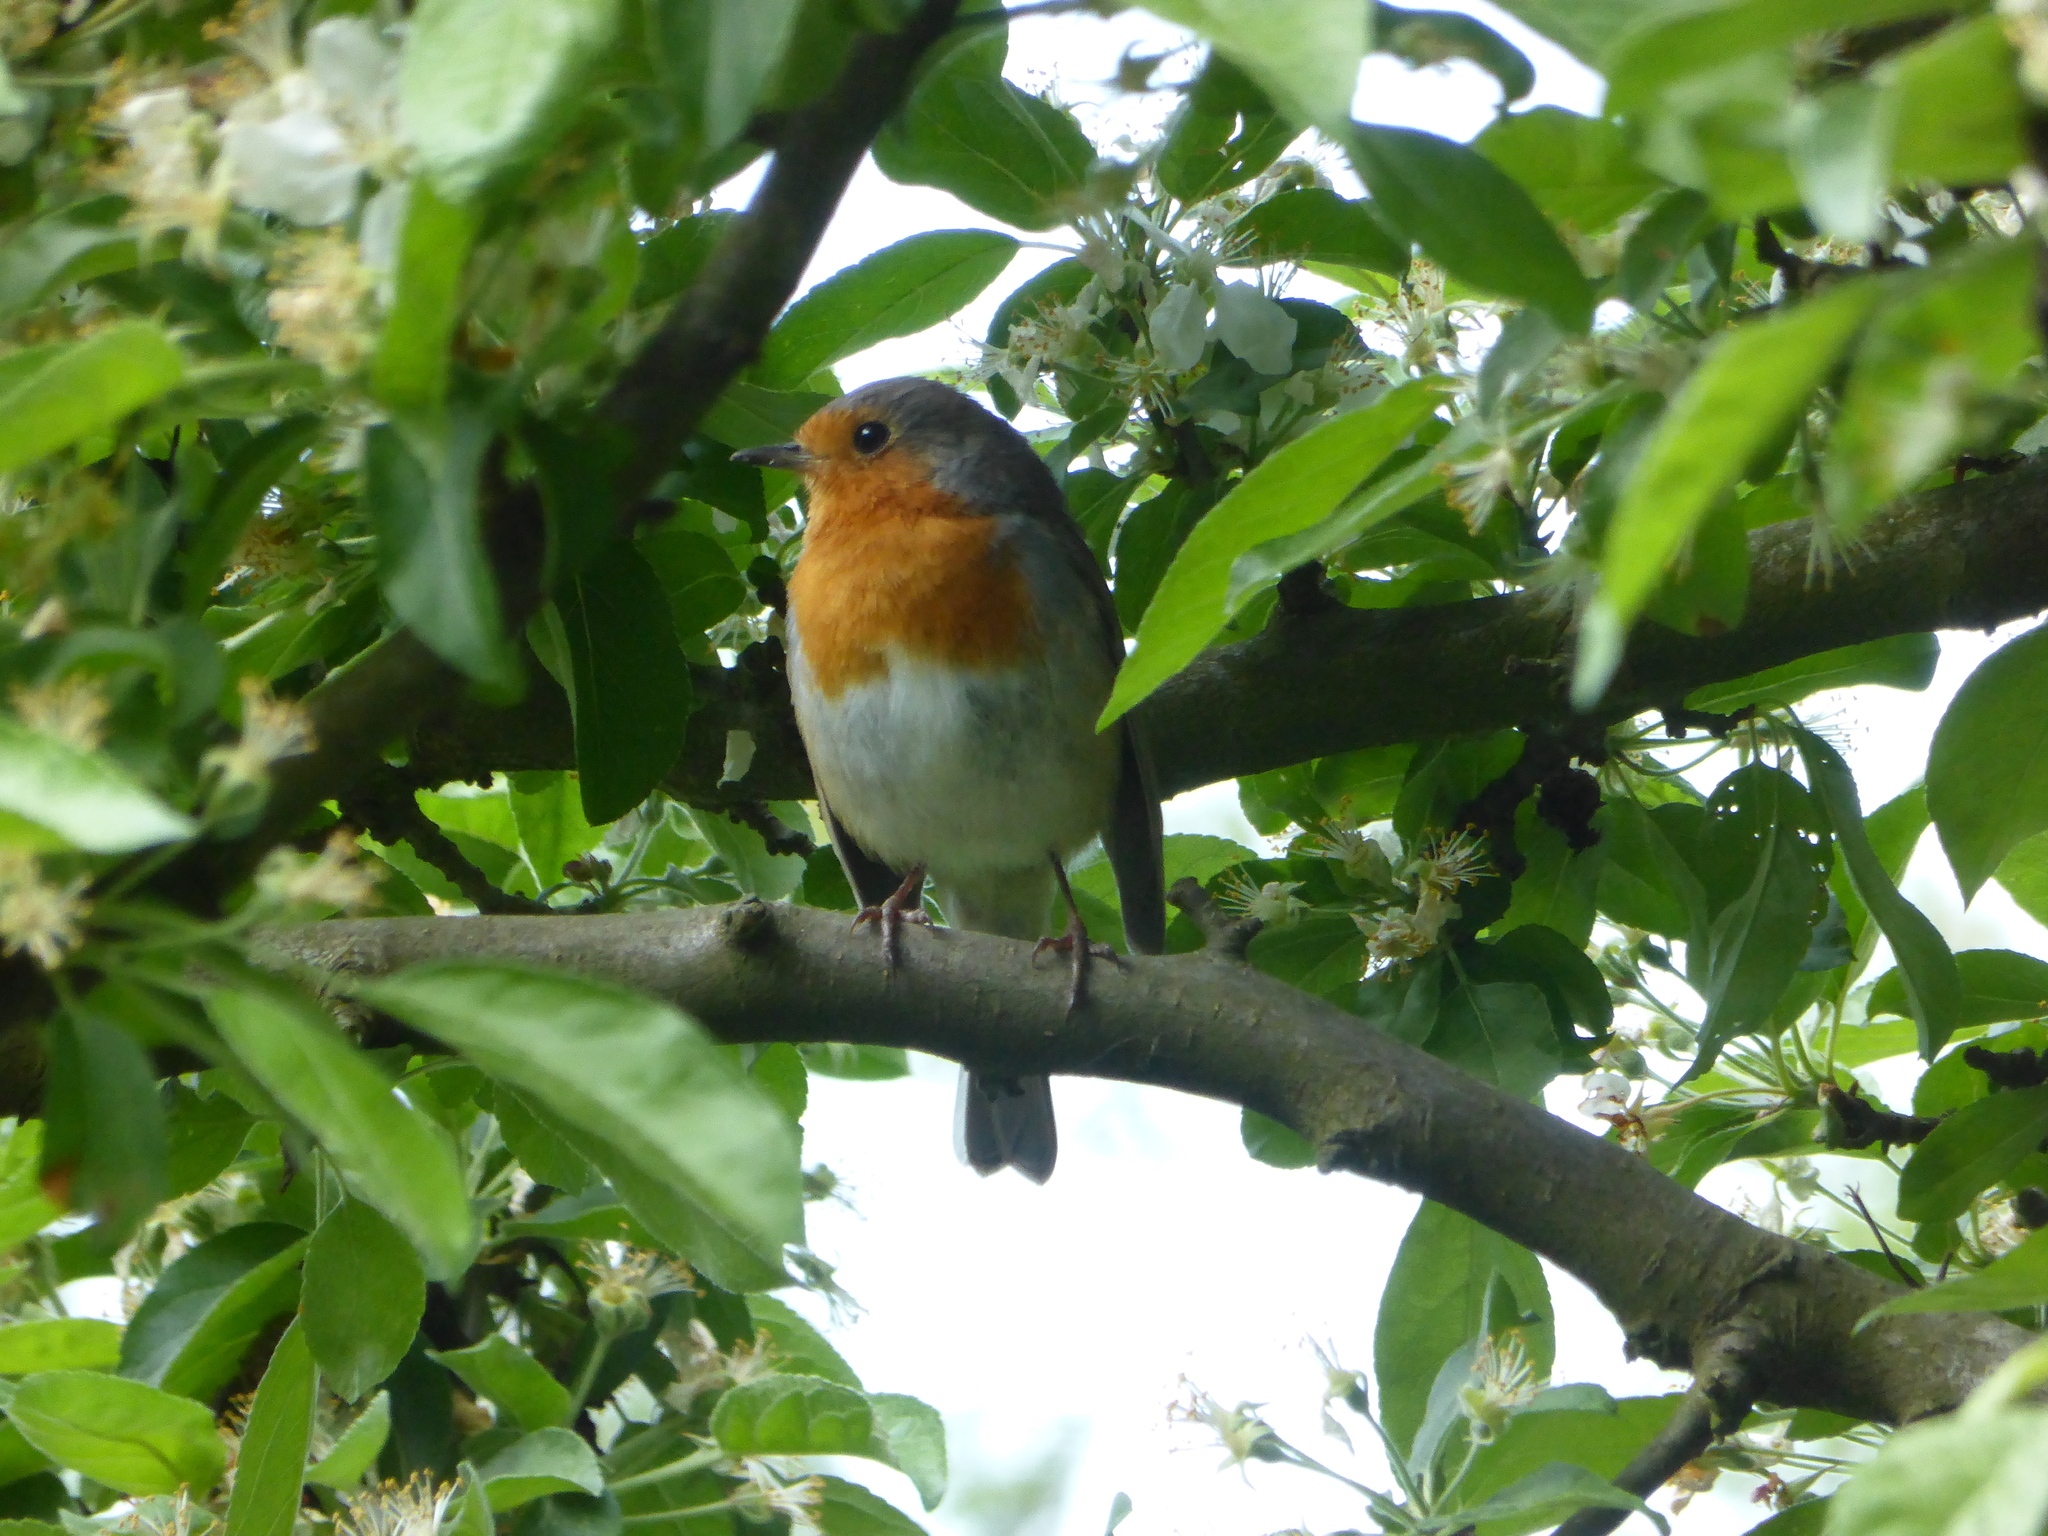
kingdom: Animalia
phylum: Chordata
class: Aves
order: Passeriformes
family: Muscicapidae
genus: Erithacus
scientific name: Erithacus rubecula
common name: European robin
